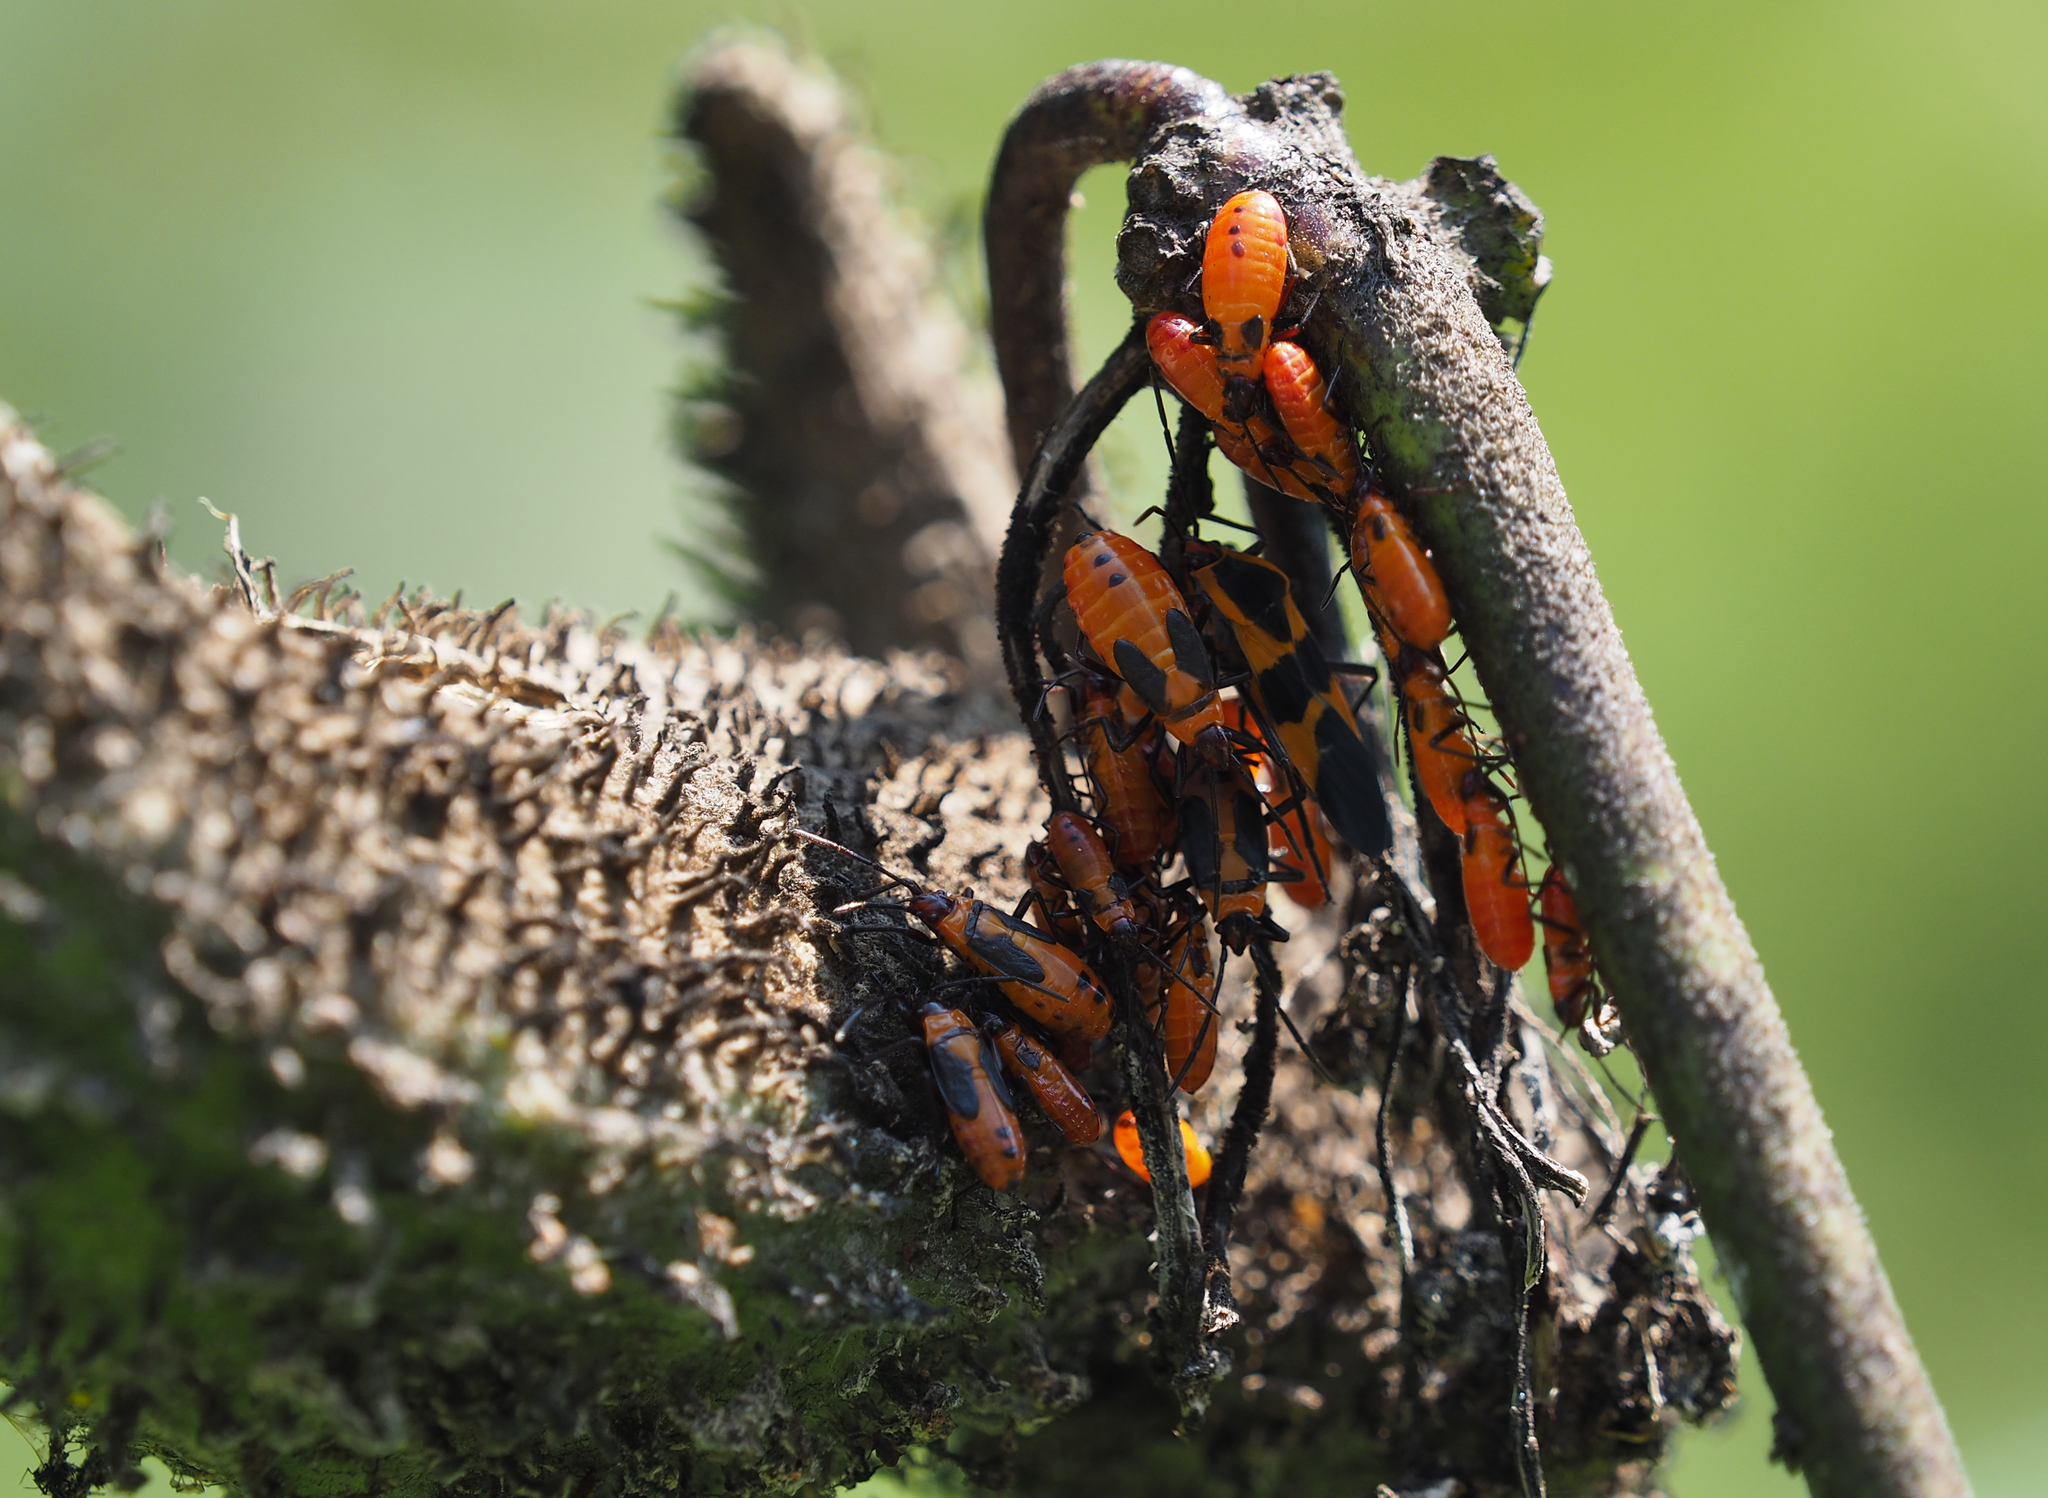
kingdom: Animalia
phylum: Arthropoda
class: Insecta
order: Hemiptera
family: Lygaeidae
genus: Oncopeltus
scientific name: Oncopeltus fasciatus
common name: Large milkweed bug
